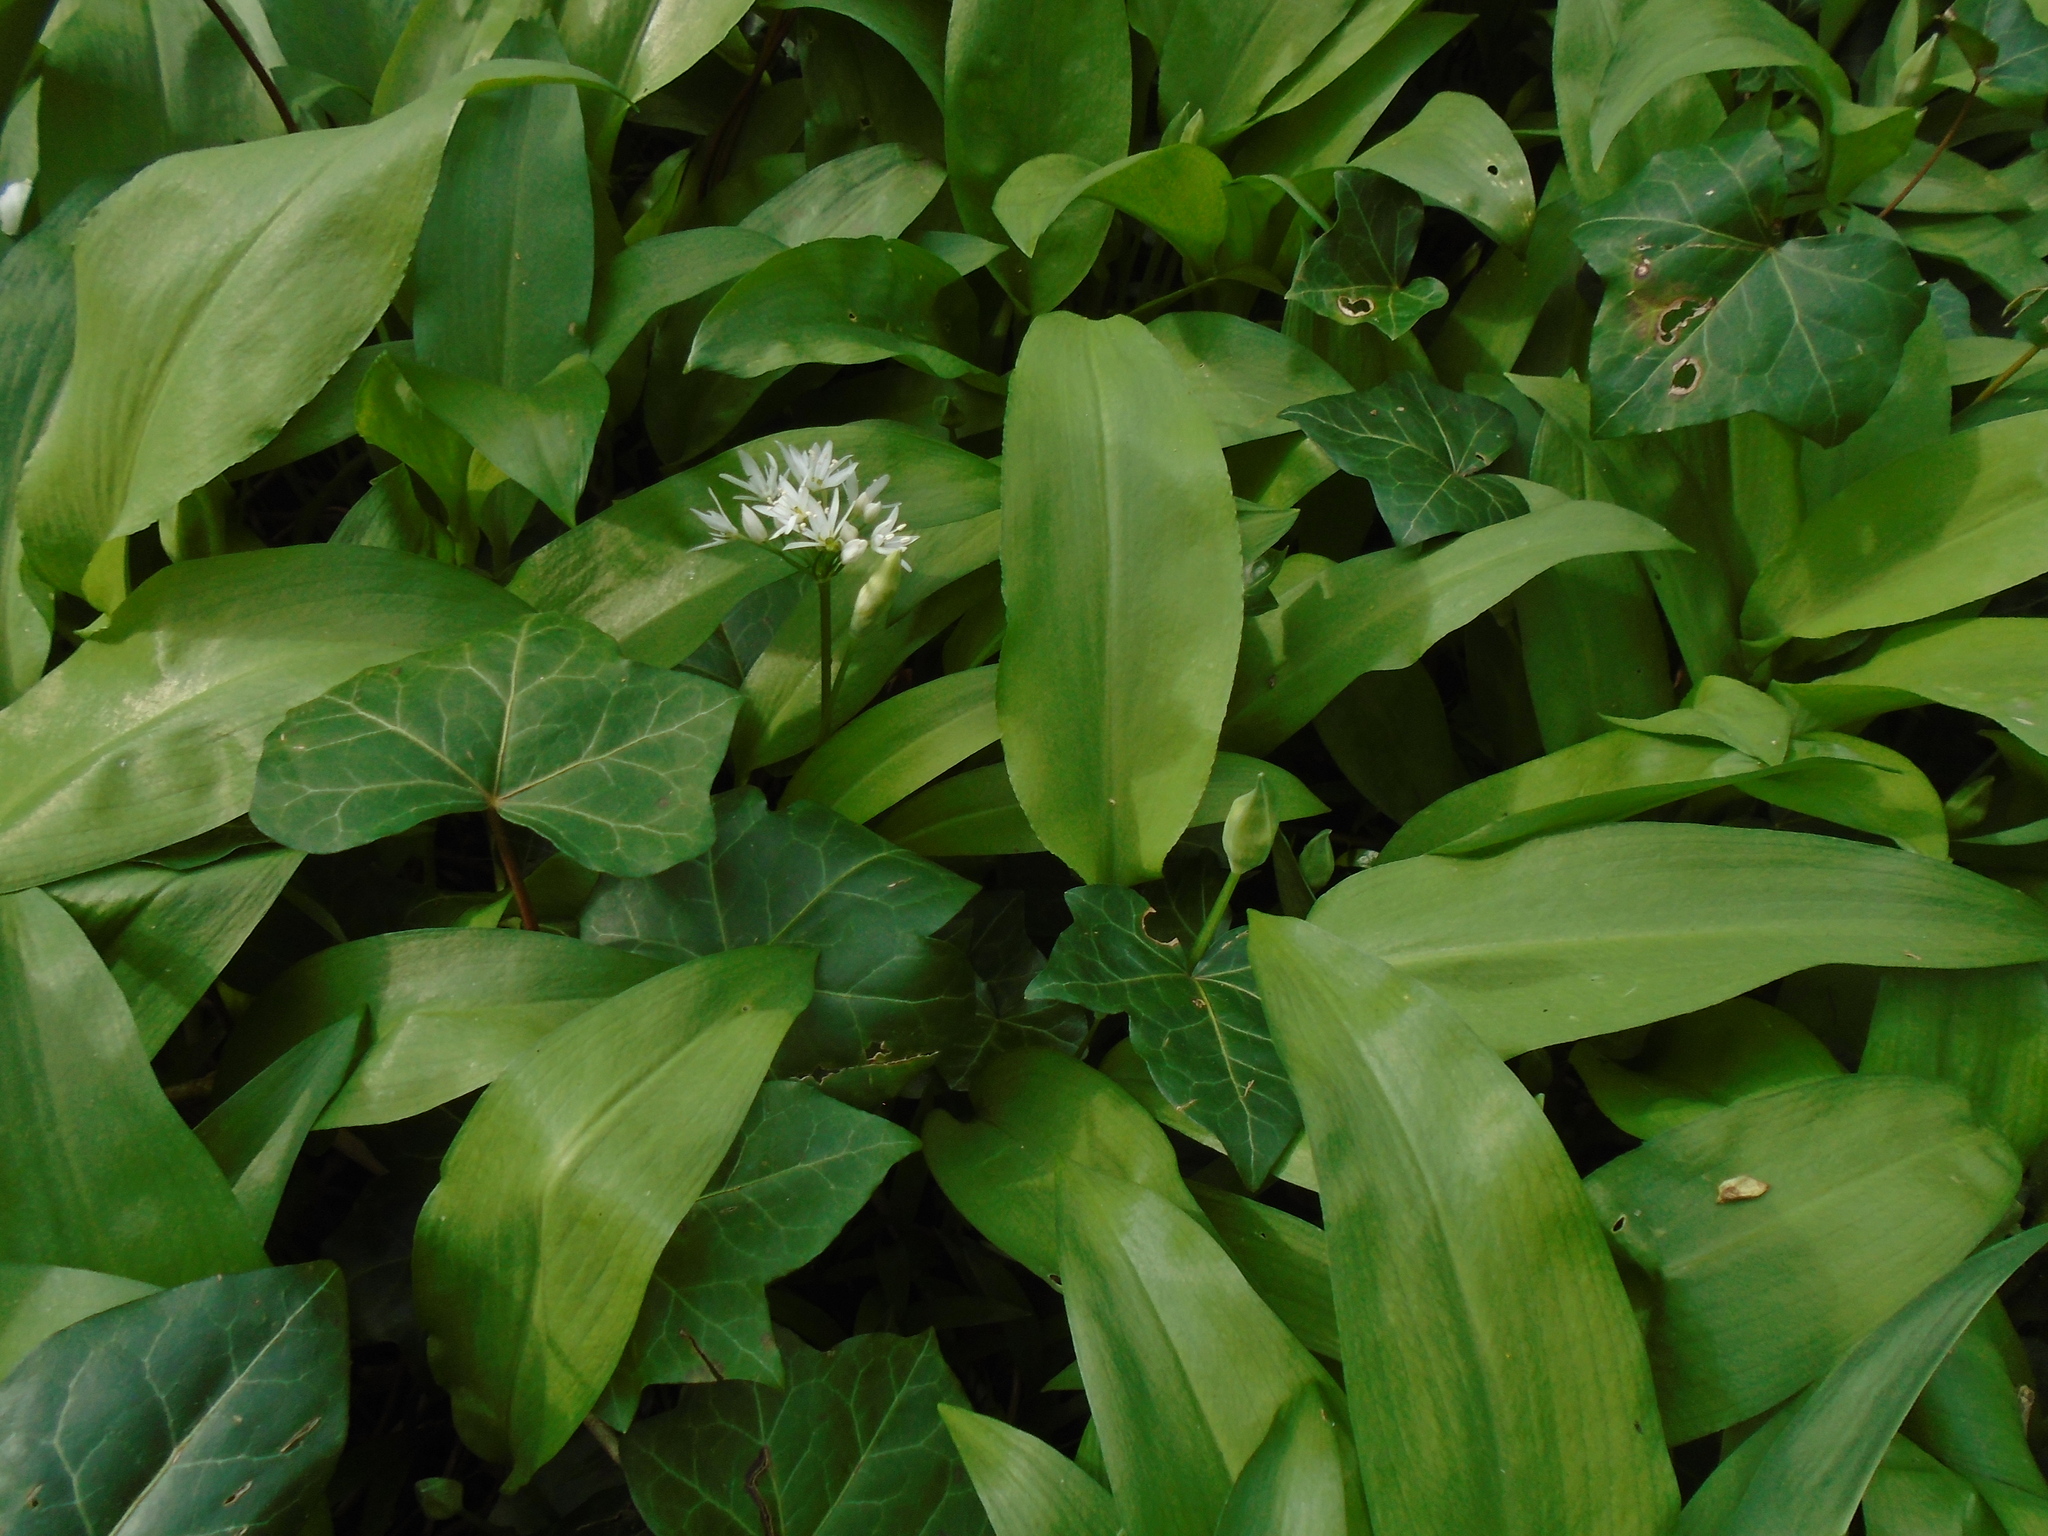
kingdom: Plantae
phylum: Tracheophyta
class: Liliopsida
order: Asparagales
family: Amaryllidaceae
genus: Allium
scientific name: Allium ursinum
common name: Ramsons
